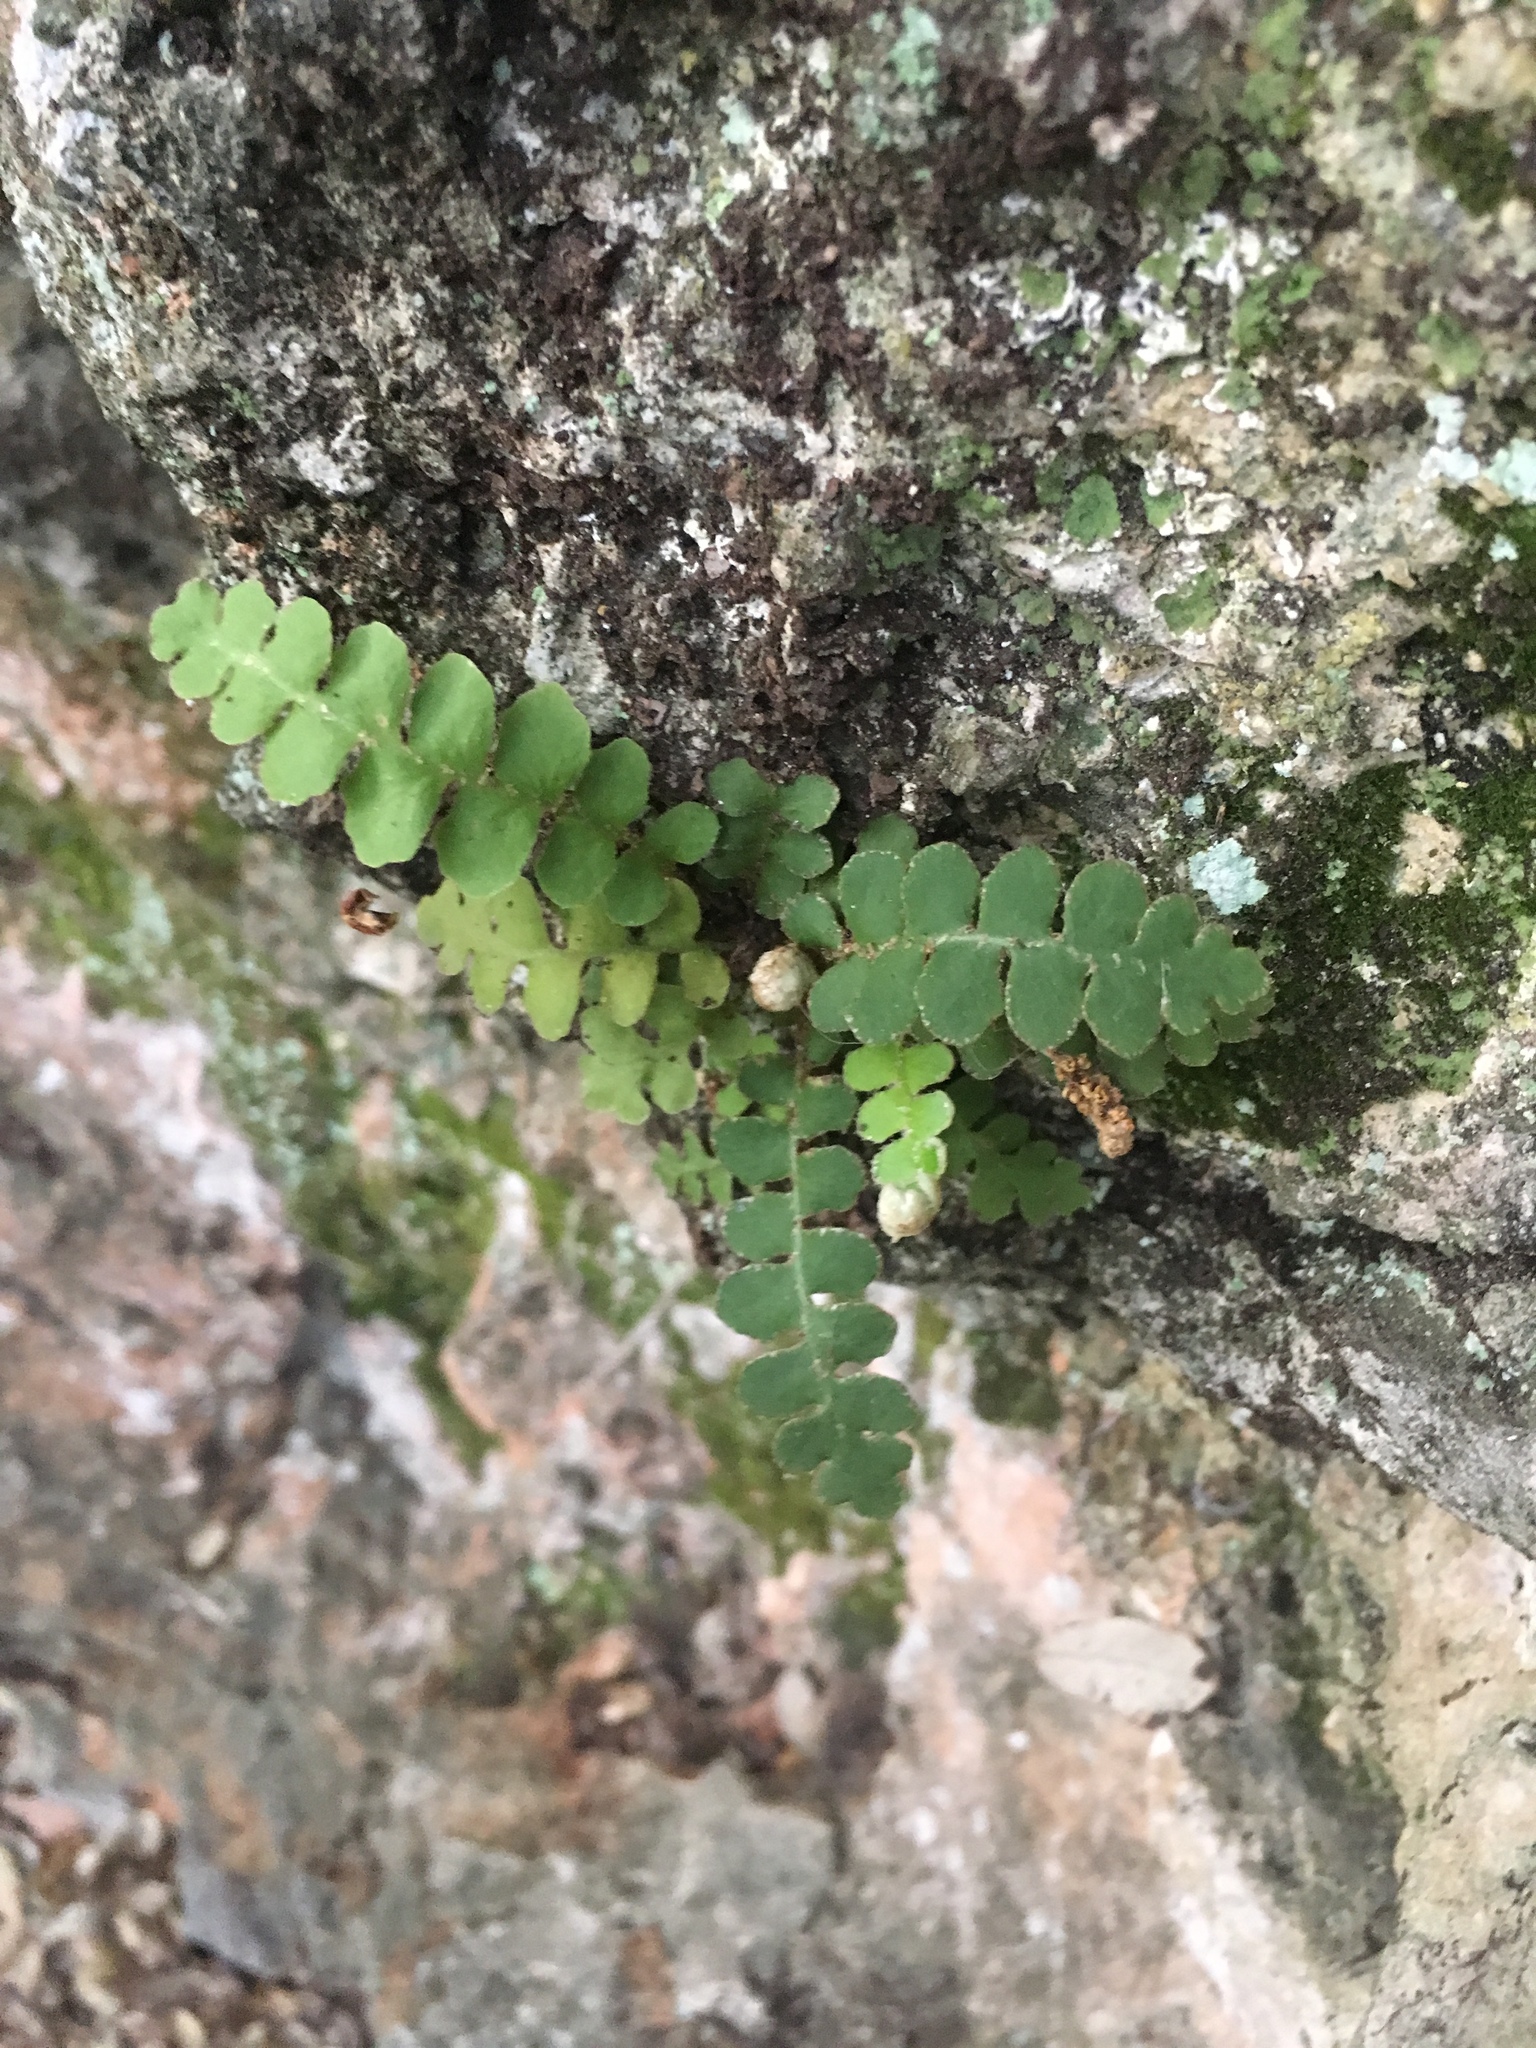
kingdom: Plantae
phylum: Tracheophyta
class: Polypodiopsida
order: Polypodiales
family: Aspleniaceae
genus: Asplenium
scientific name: Asplenium ceterach
